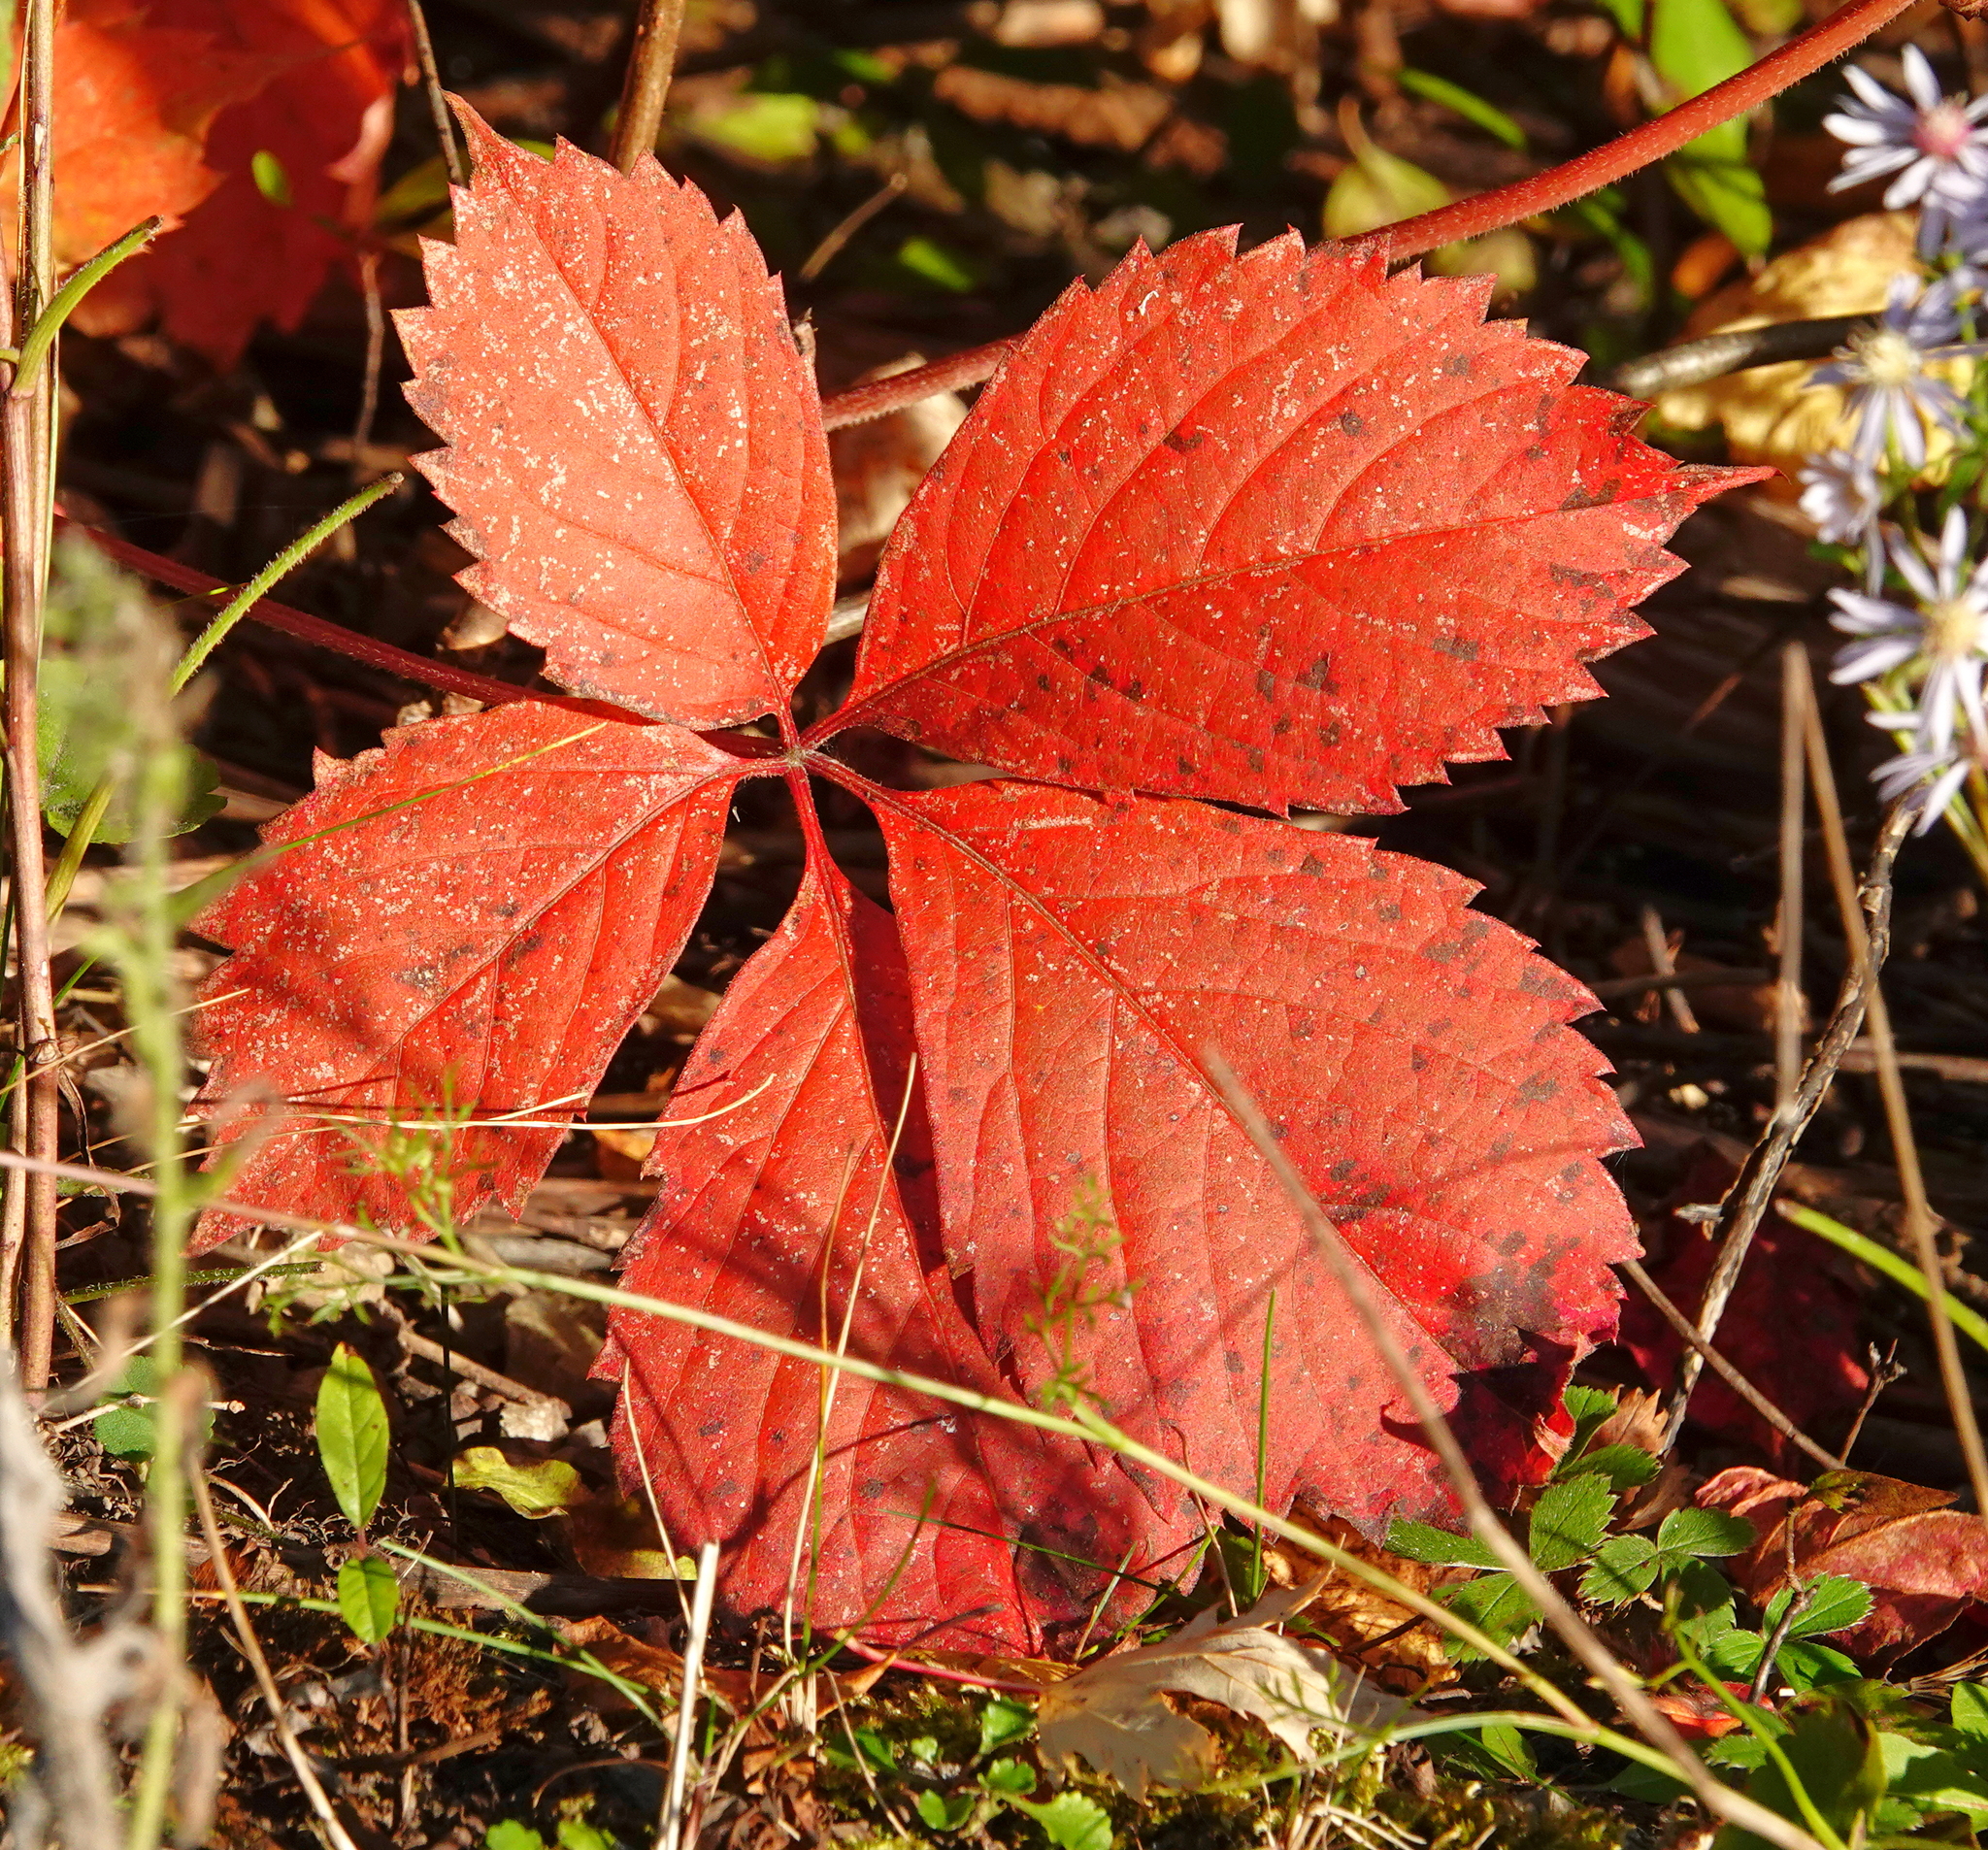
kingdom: Plantae
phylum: Tracheophyta
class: Magnoliopsida
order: Vitales
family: Vitaceae
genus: Parthenocissus
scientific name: Parthenocissus quinquefolia
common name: Virginia-creeper
